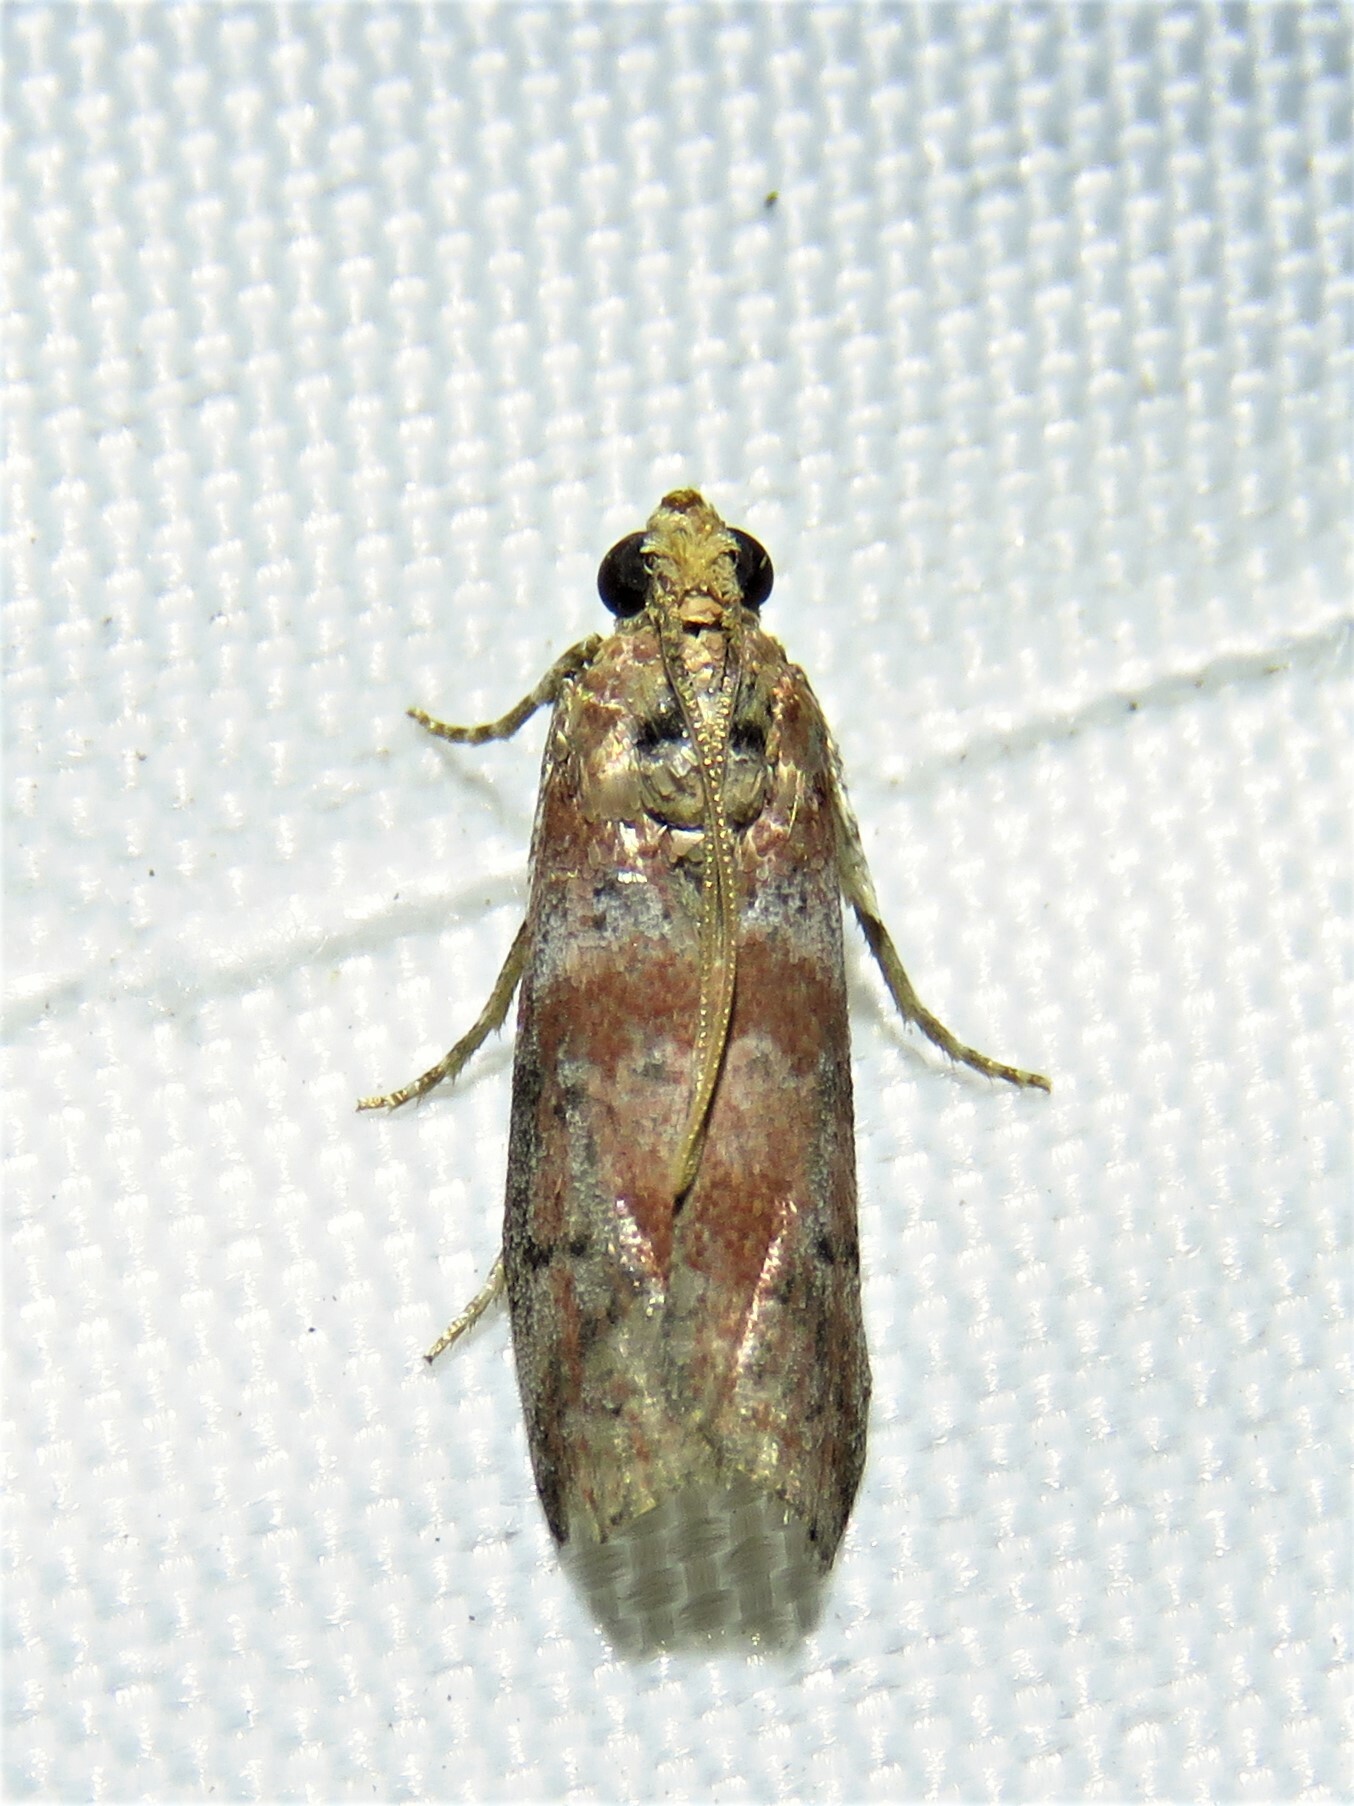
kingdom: Animalia
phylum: Arthropoda
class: Insecta
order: Lepidoptera
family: Pyralidae
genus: Sciota
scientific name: Sciota
